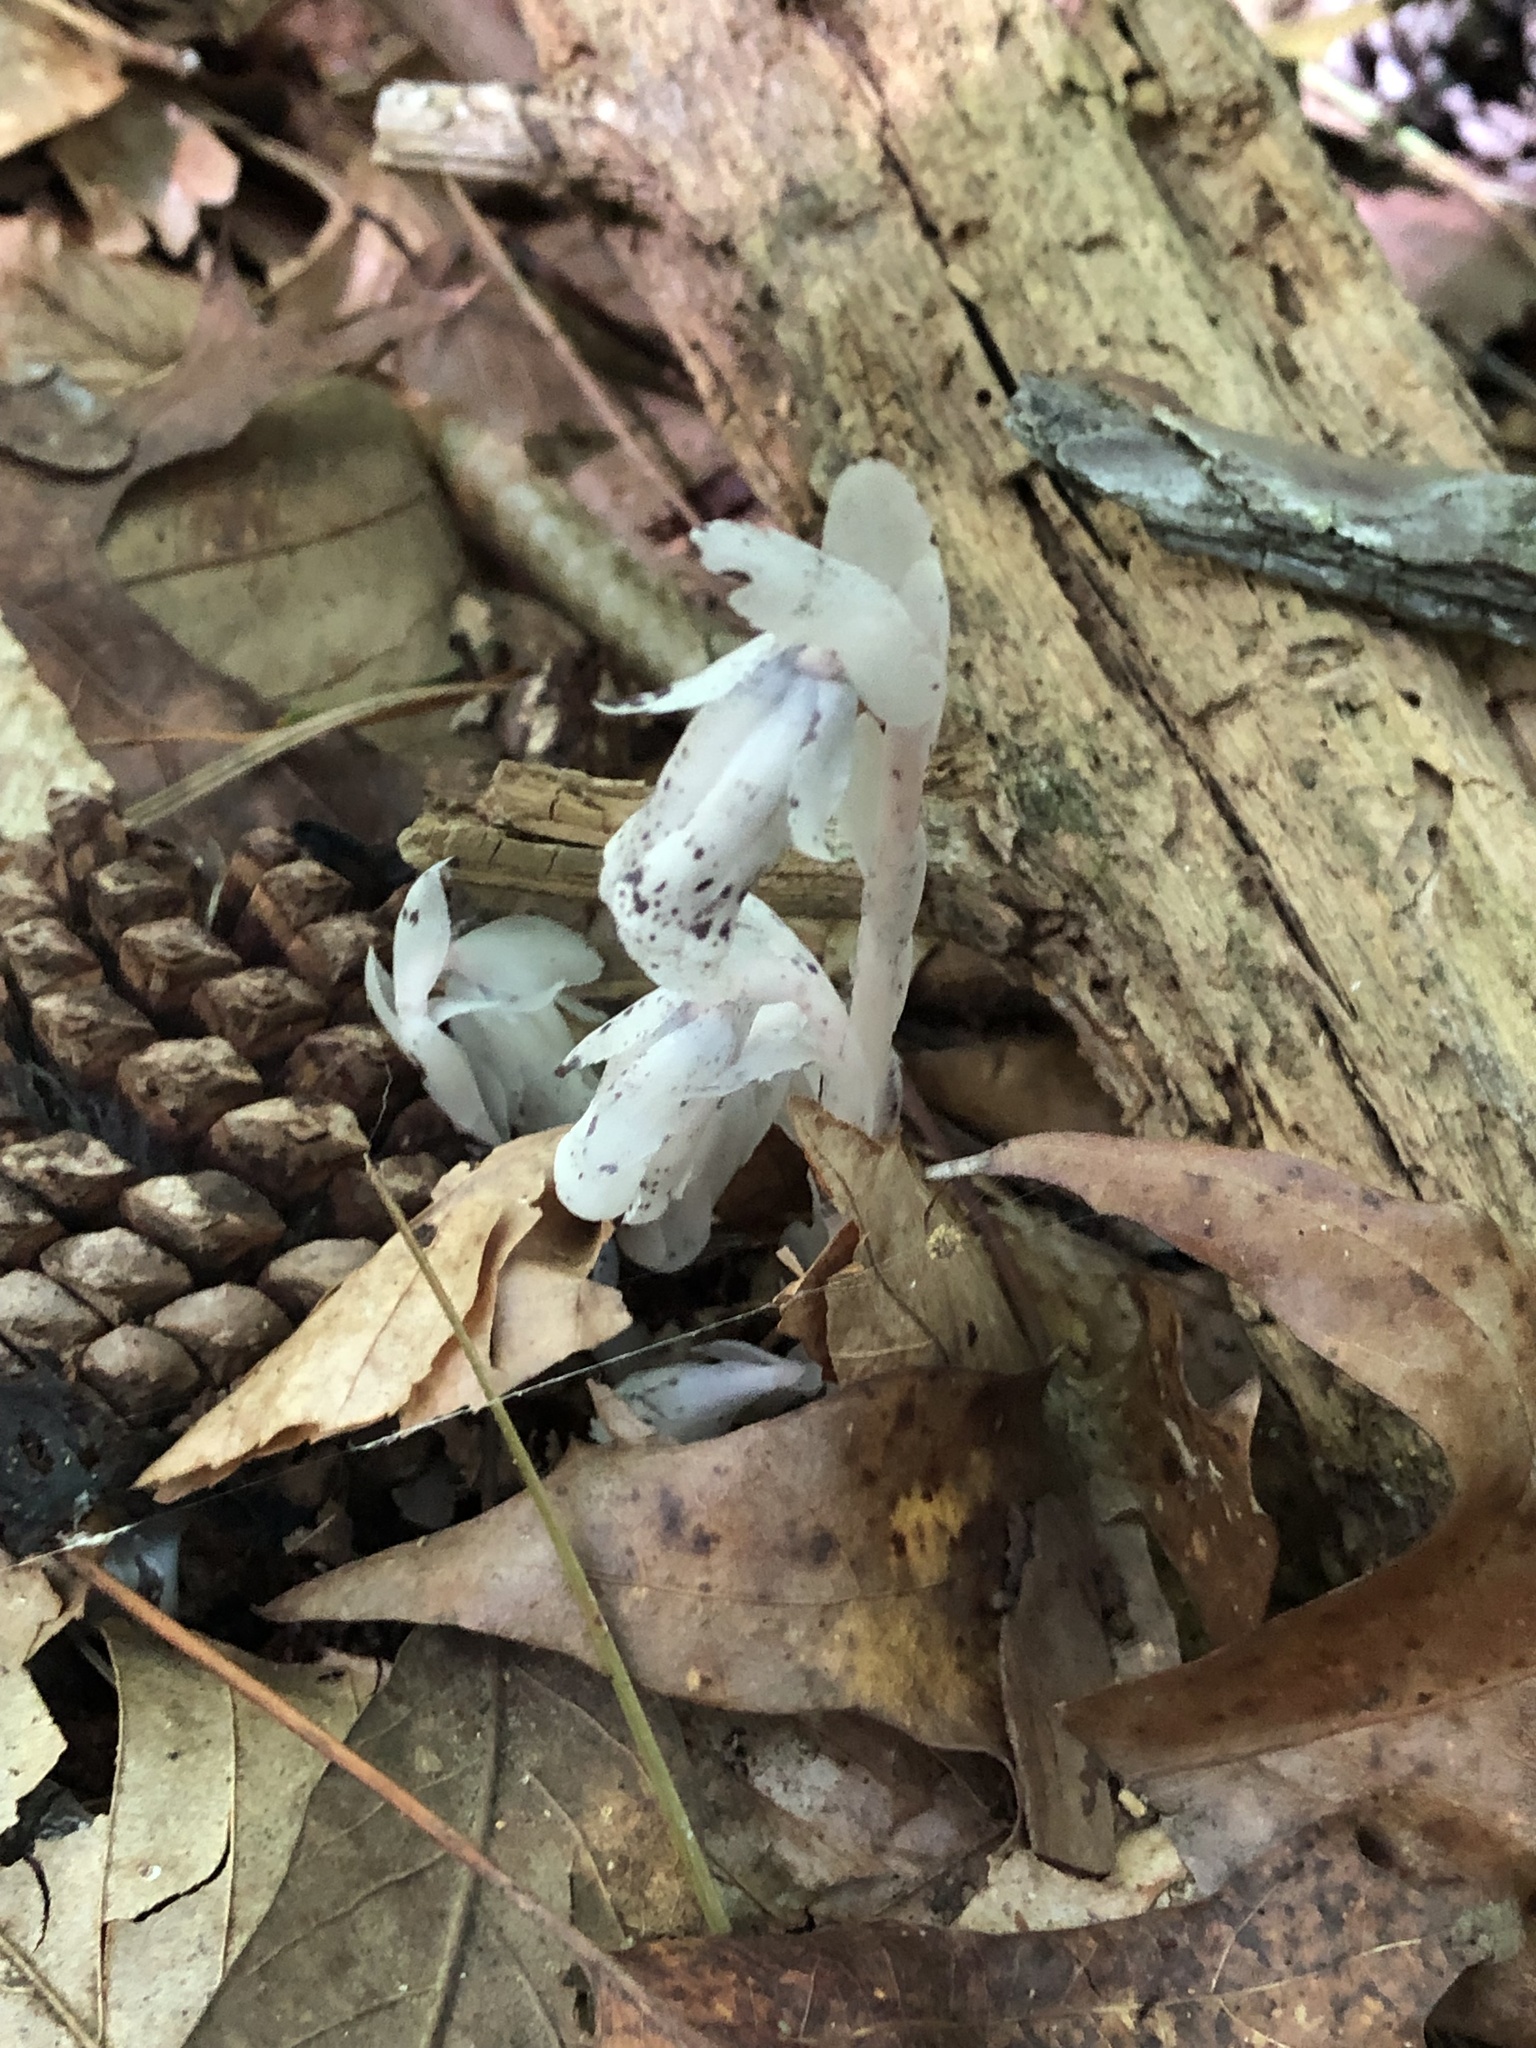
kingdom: Plantae
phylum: Tracheophyta
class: Magnoliopsida
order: Ericales
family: Ericaceae
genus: Monotropa
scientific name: Monotropa uniflora
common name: Convulsion root
